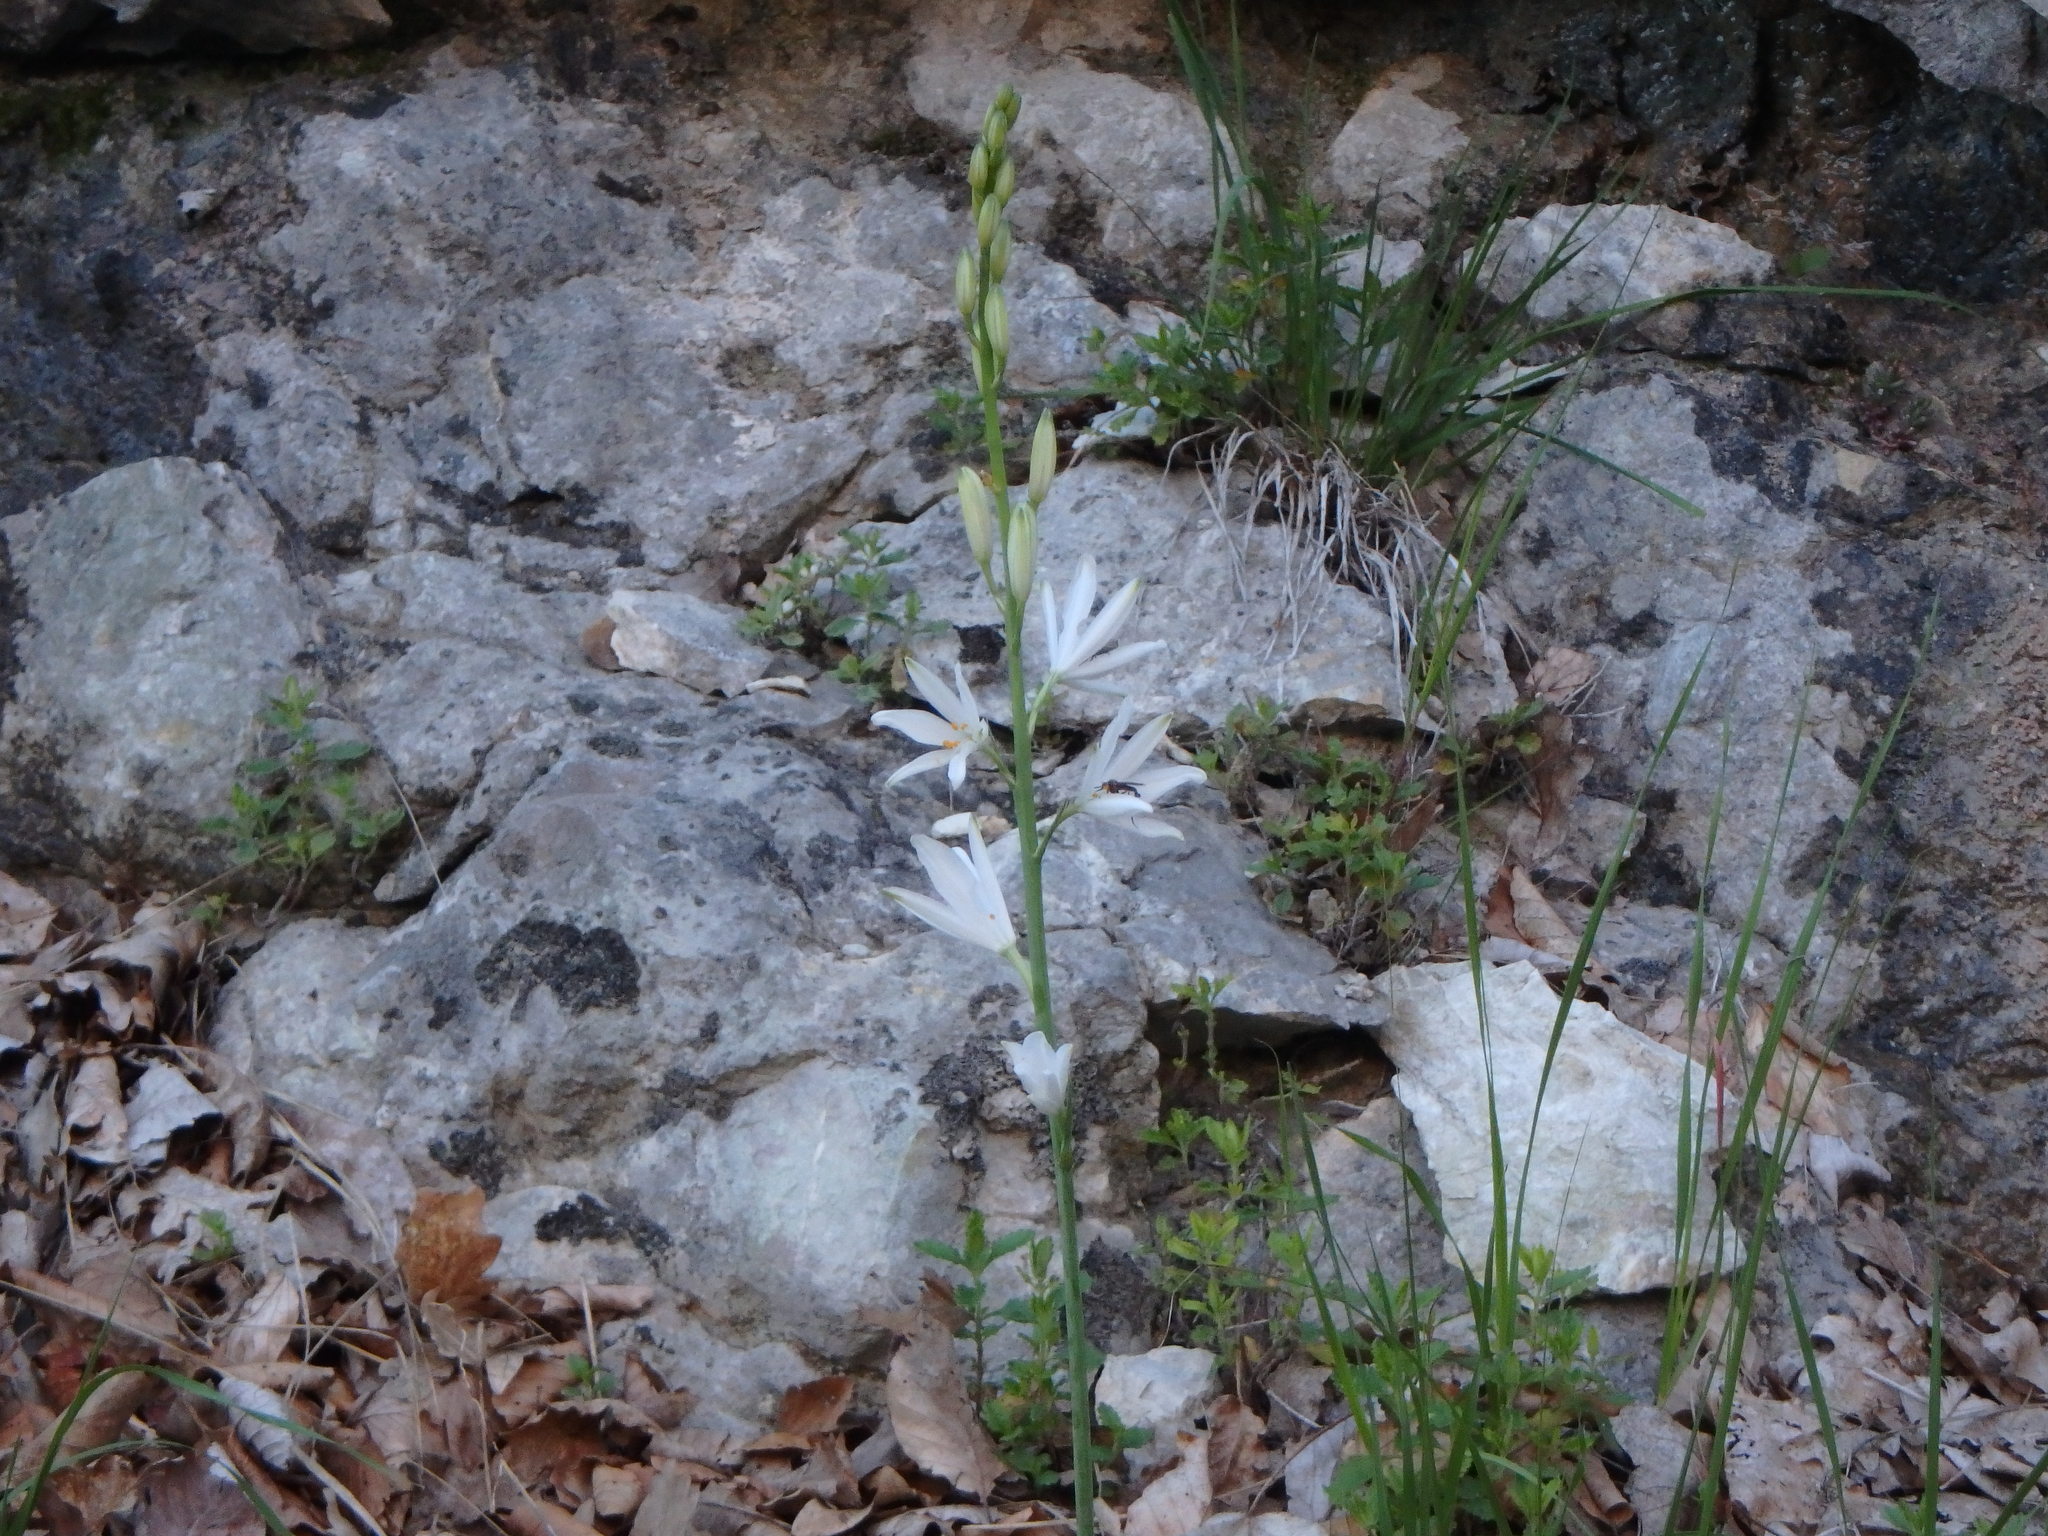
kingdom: Plantae
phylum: Tracheophyta
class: Liliopsida
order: Asparagales
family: Asparagaceae
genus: Anthericum
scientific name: Anthericum liliago
